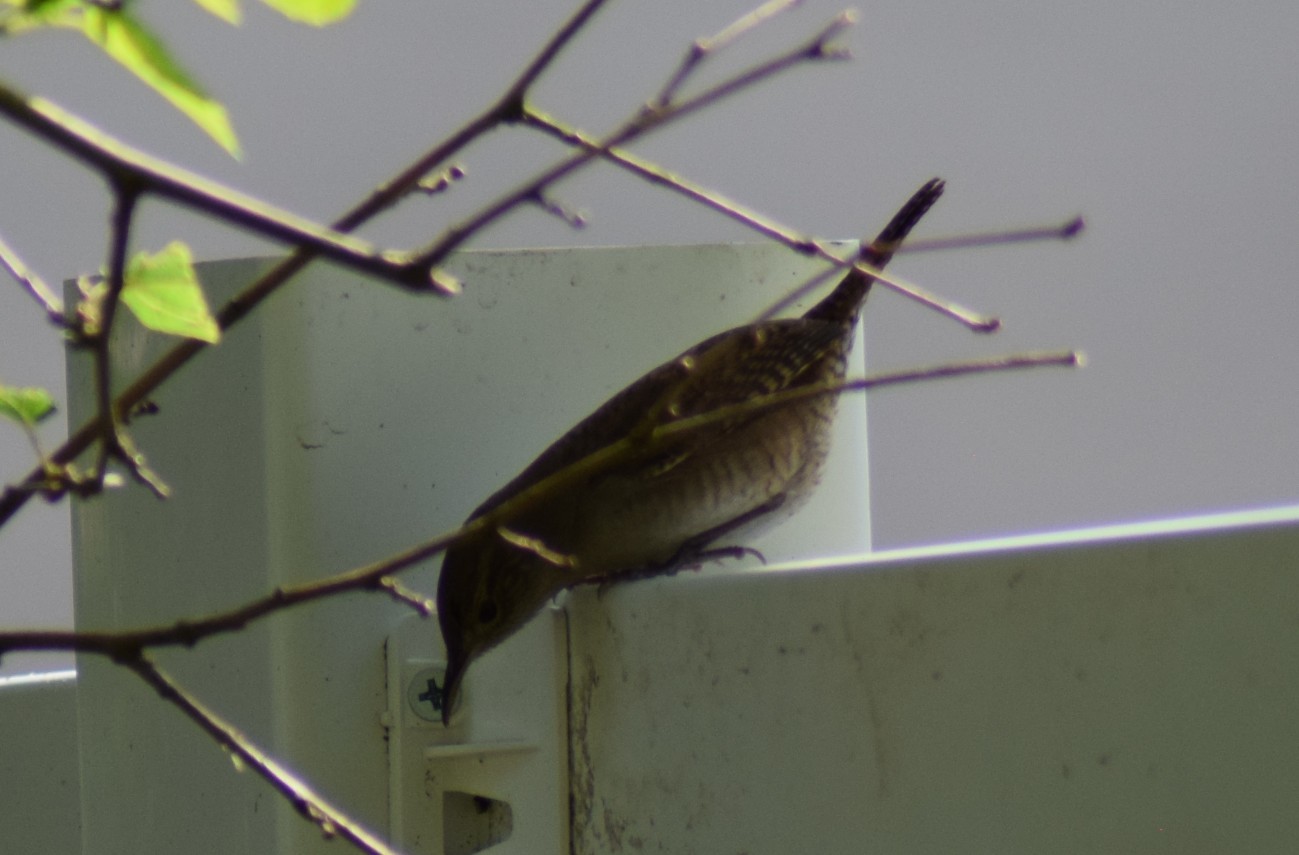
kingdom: Animalia
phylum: Chordata
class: Aves
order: Passeriformes
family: Troglodytidae
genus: Troglodytes
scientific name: Troglodytes aedon
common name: House wren
